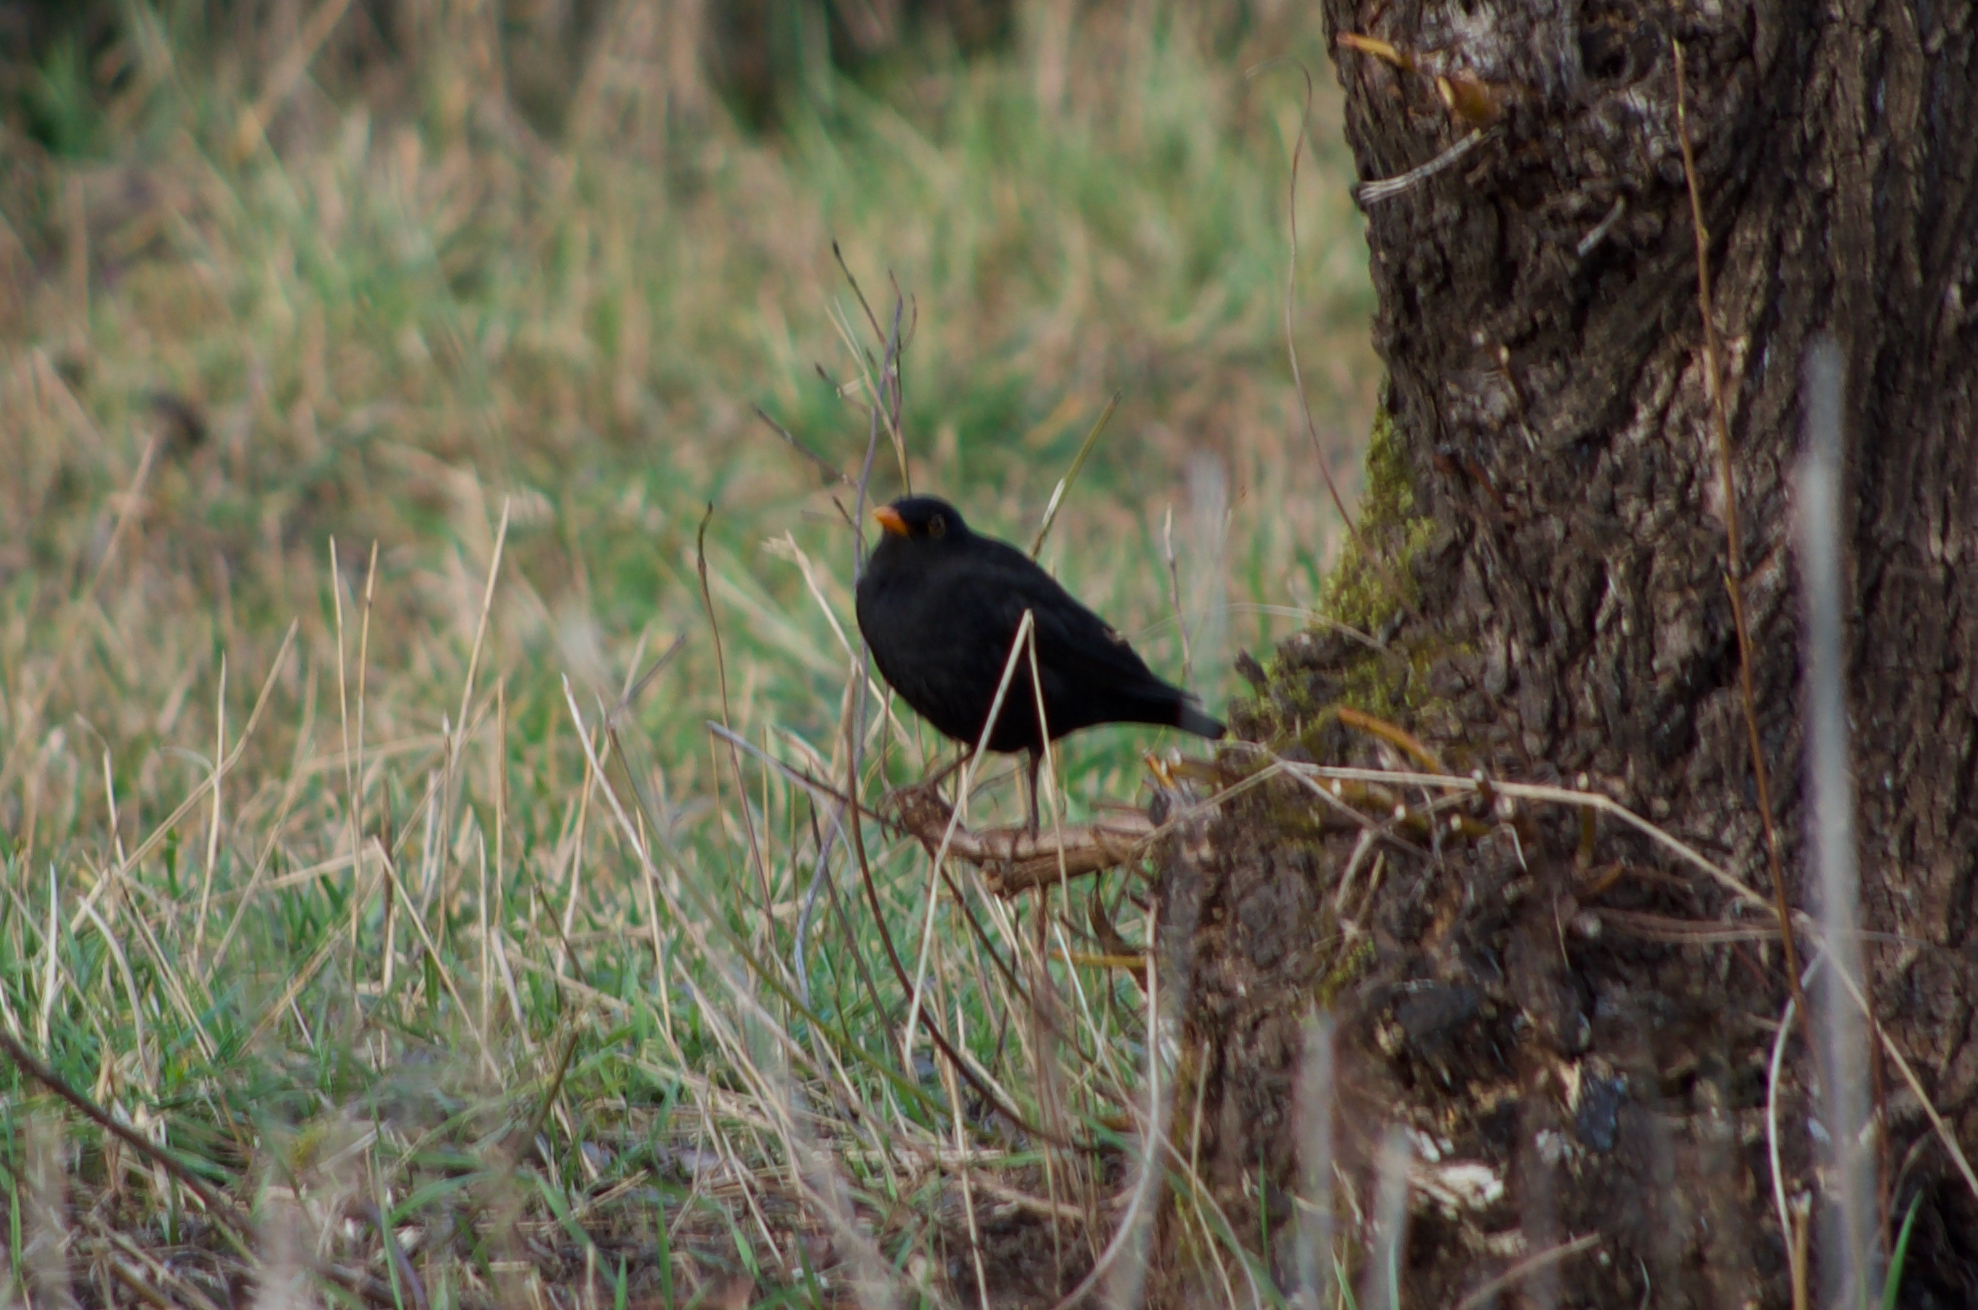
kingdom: Animalia
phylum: Chordata
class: Aves
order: Passeriformes
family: Turdidae
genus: Turdus
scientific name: Turdus merula
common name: Common blackbird
